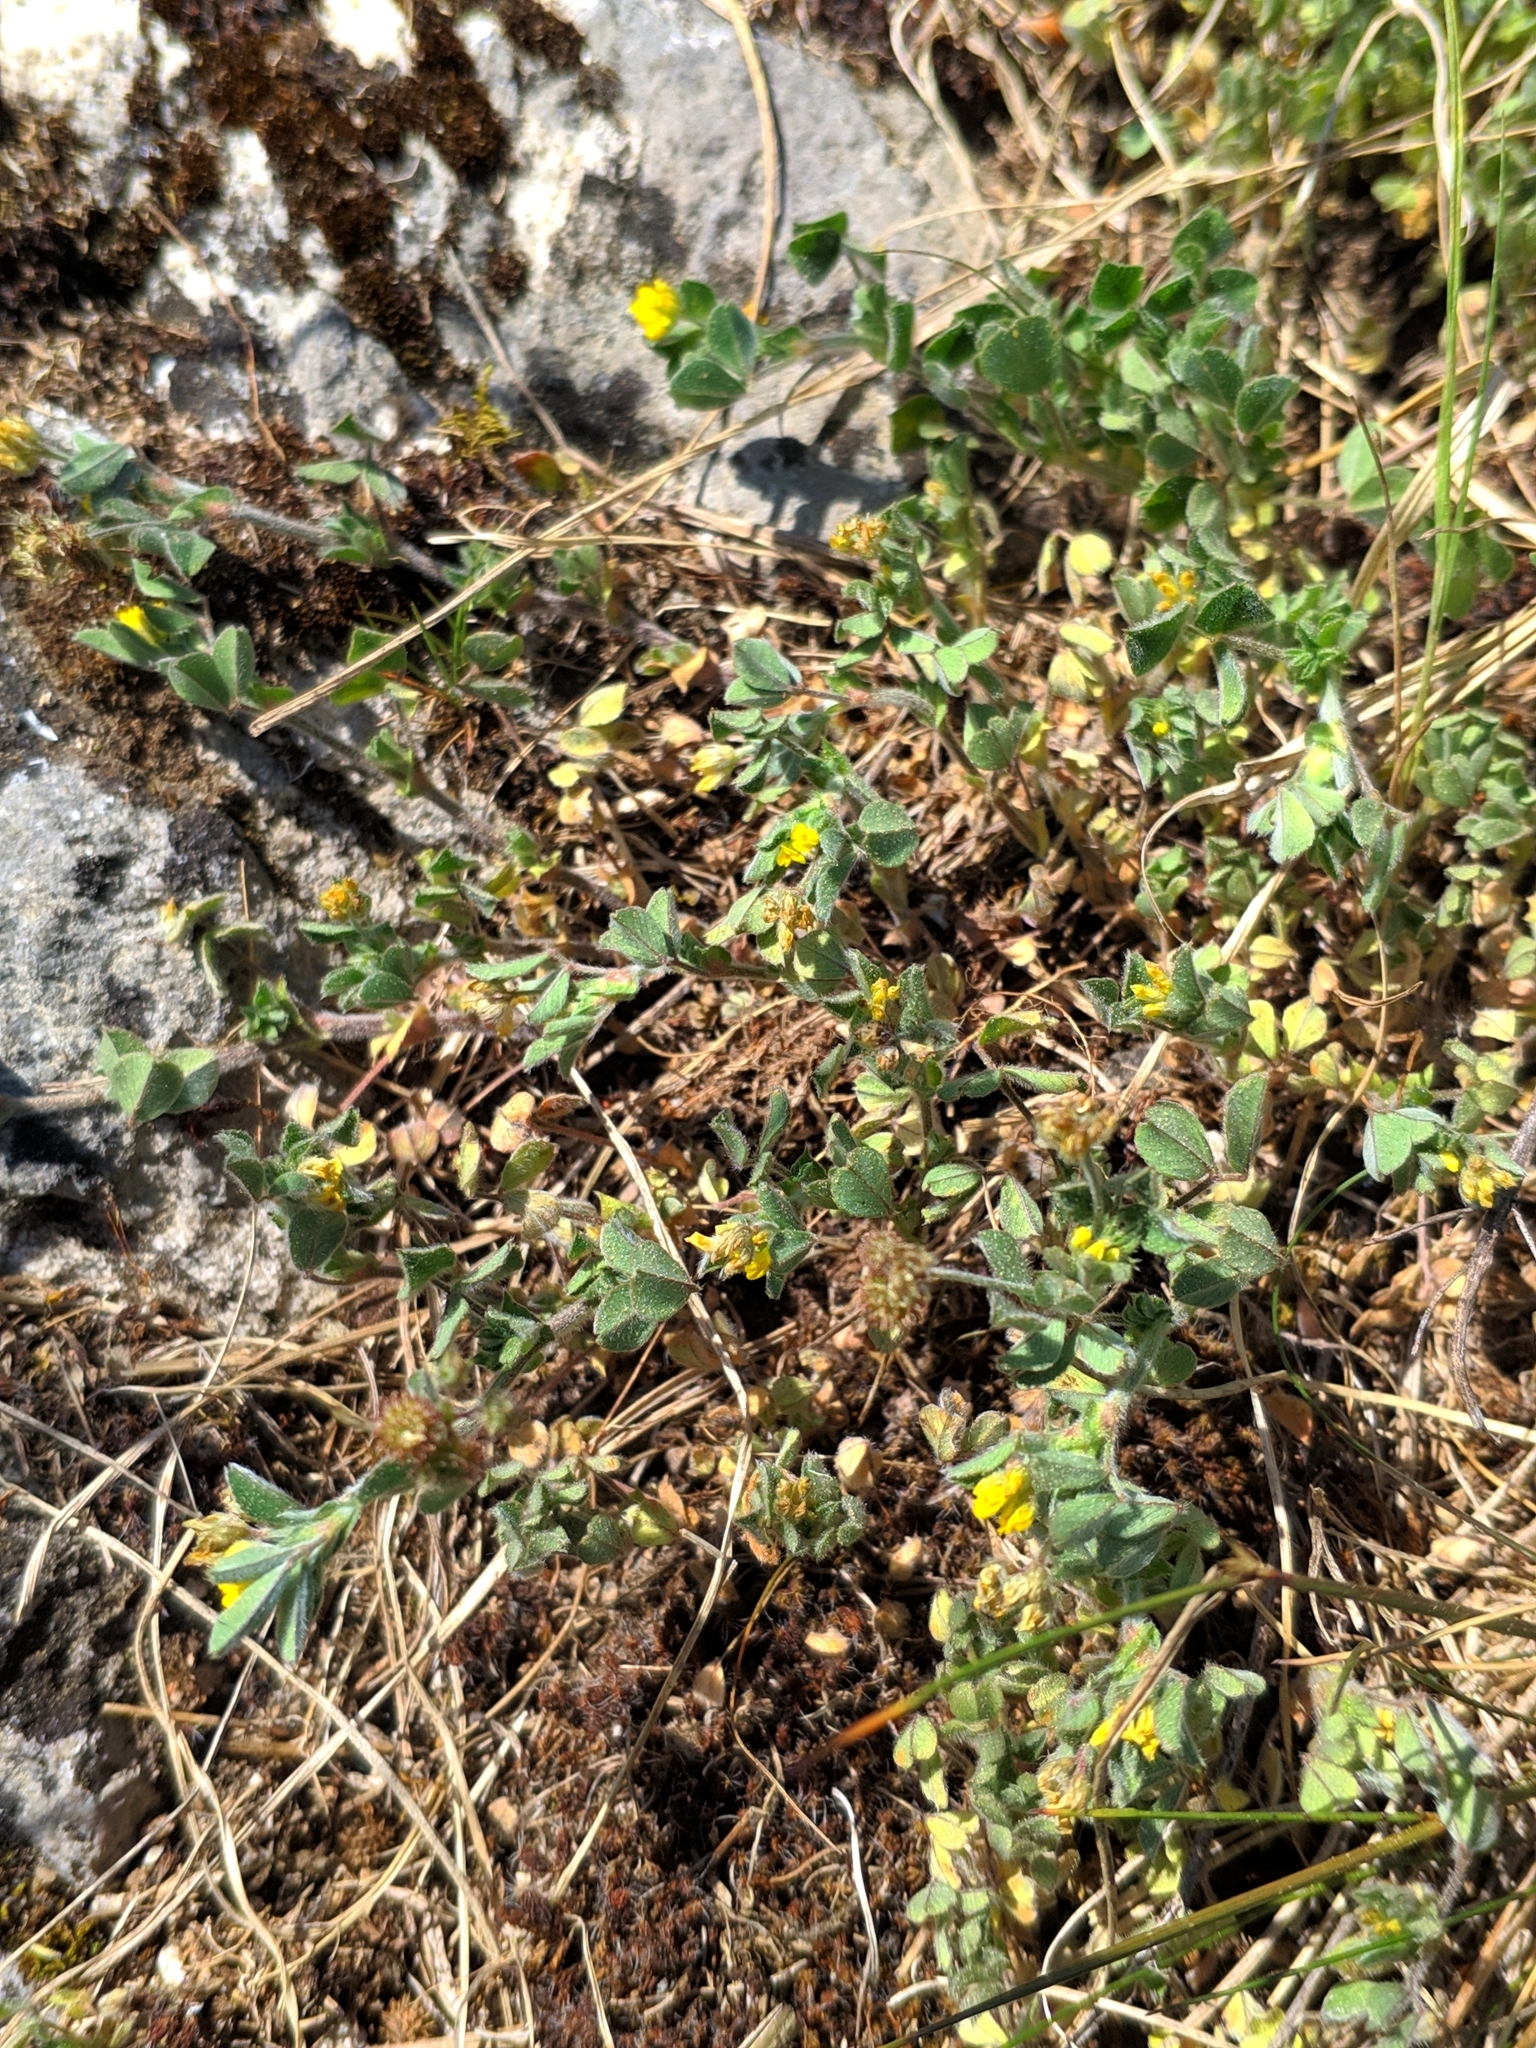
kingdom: Plantae
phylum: Tracheophyta
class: Magnoliopsida
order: Fabales
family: Fabaceae
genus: Medicago
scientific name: Medicago minima
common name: Little bur-clover
